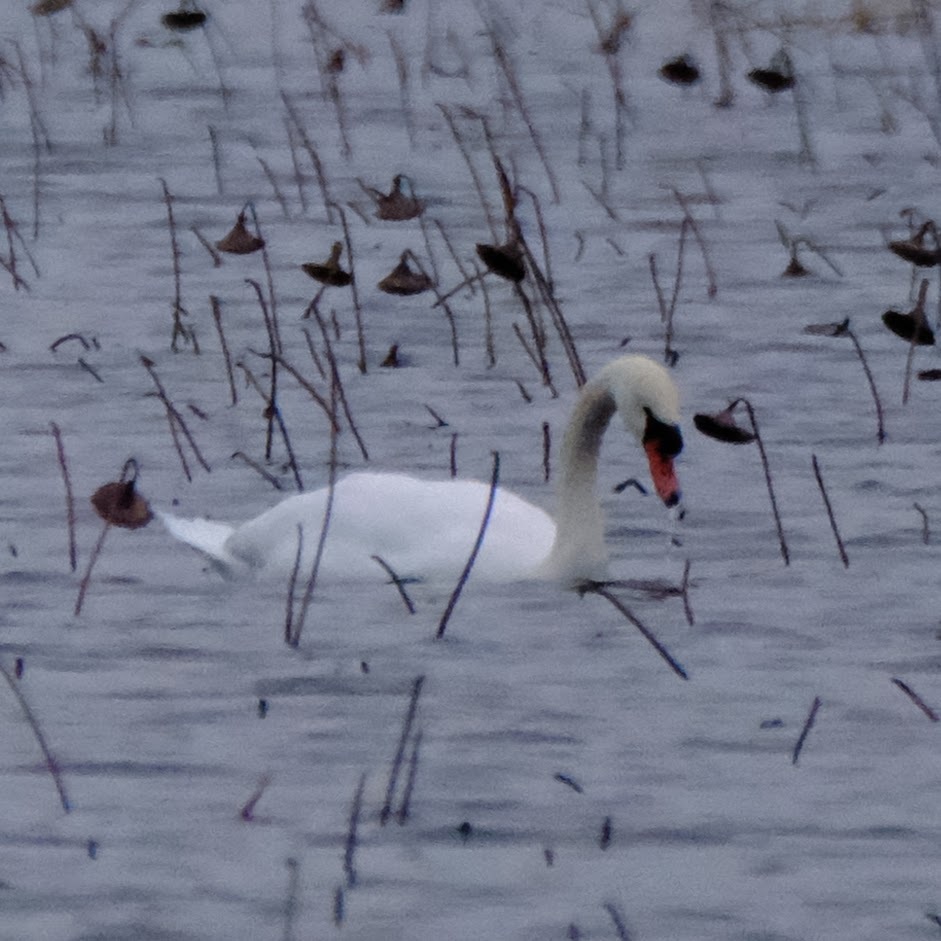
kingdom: Animalia
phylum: Chordata
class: Aves
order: Anseriformes
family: Anatidae
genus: Cygnus
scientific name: Cygnus olor
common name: Mute swan
